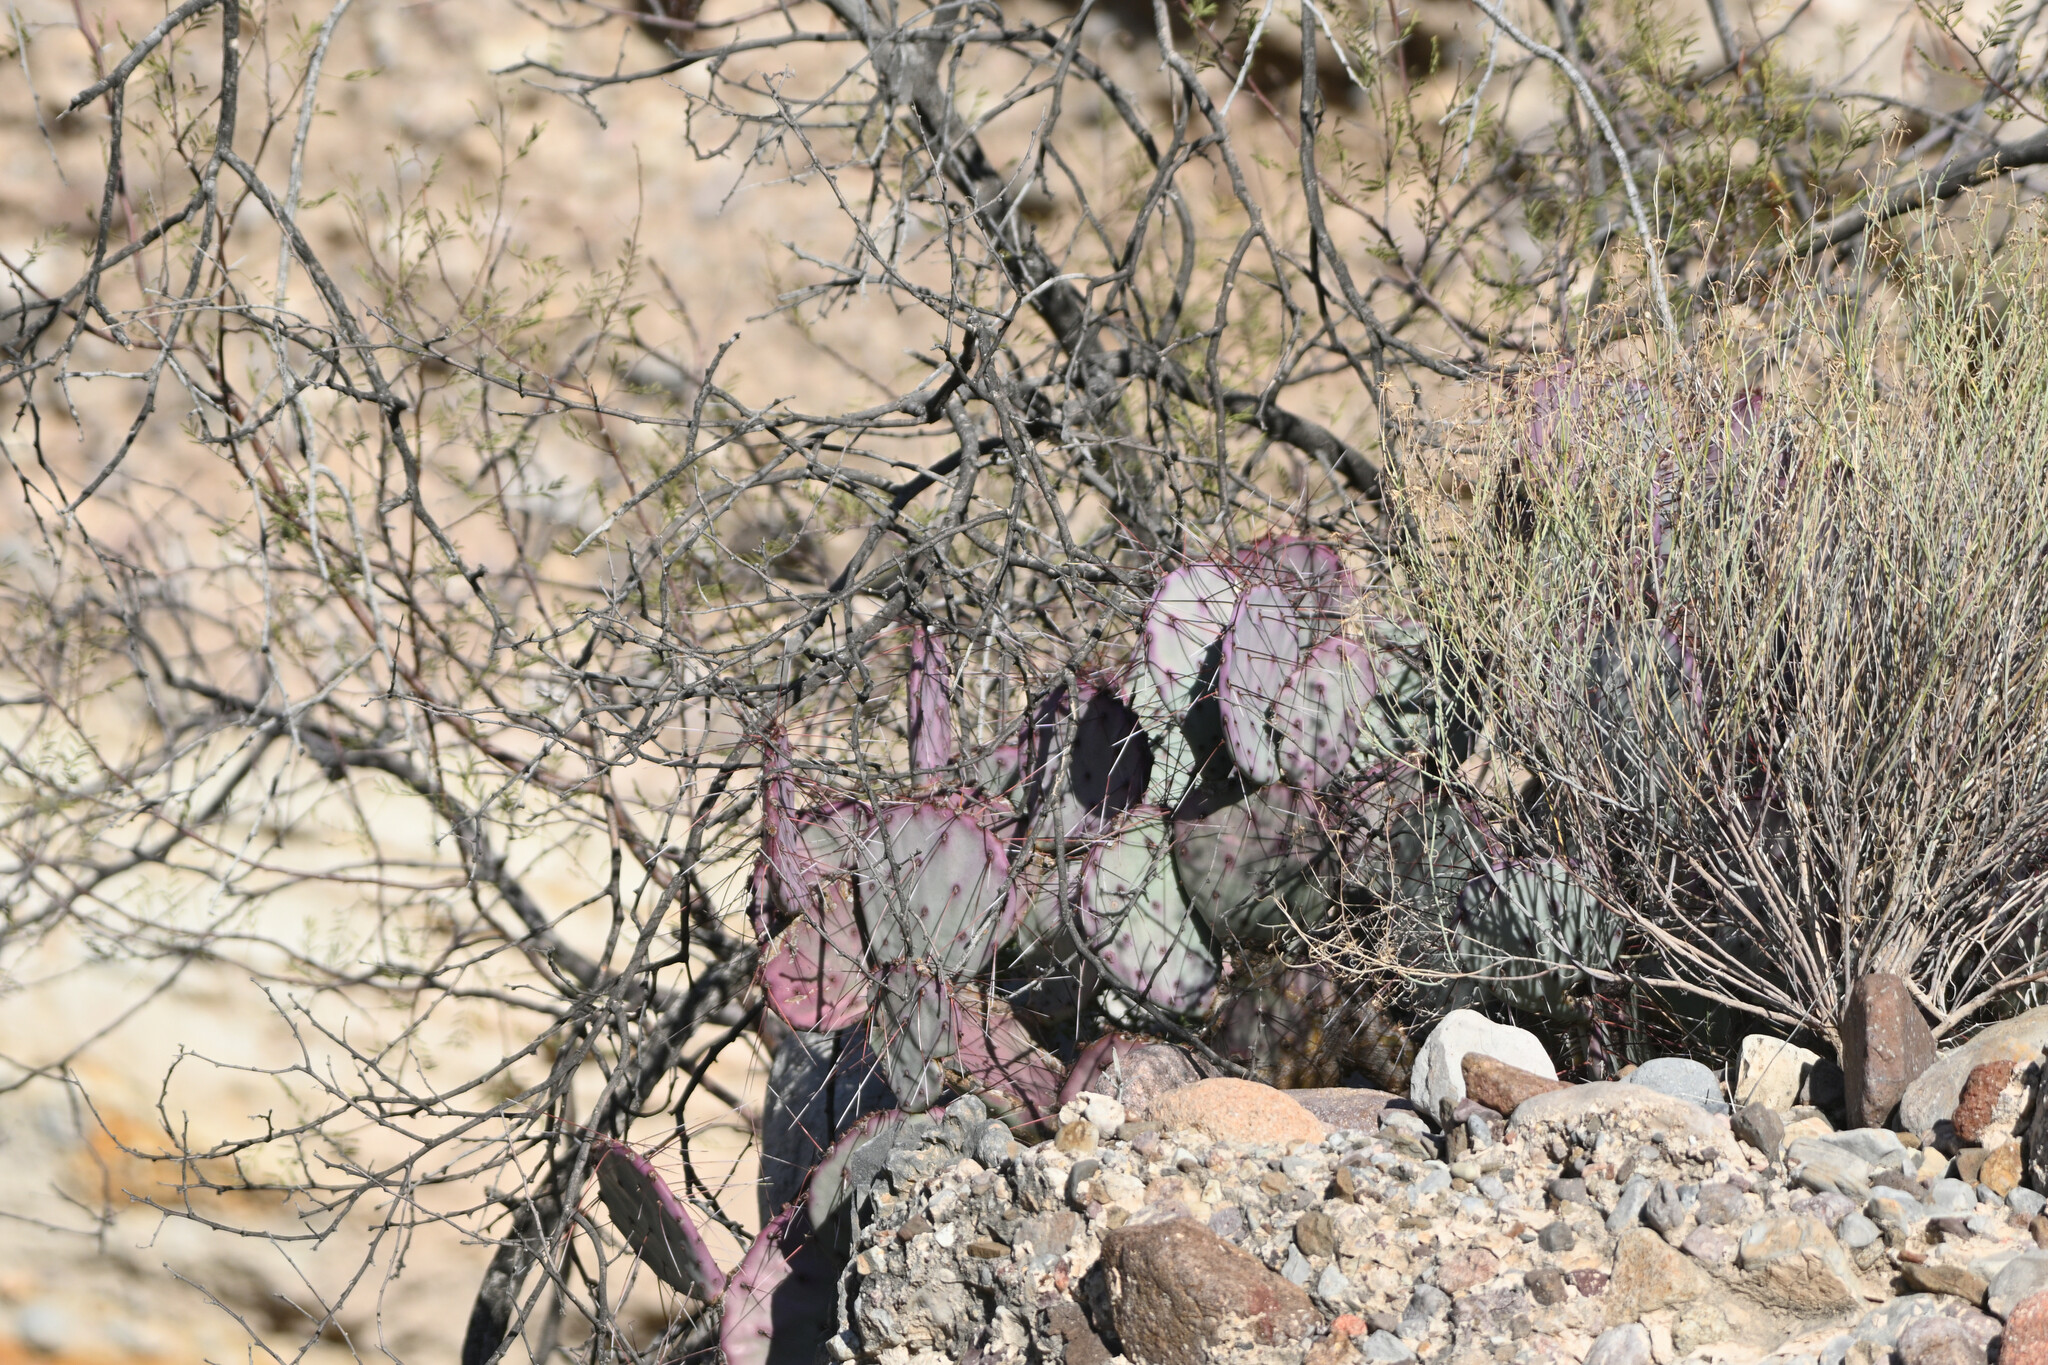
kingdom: Plantae
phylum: Tracheophyta
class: Magnoliopsida
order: Caryophyllales
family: Cactaceae
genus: Opuntia
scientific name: Opuntia phaeacantha
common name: New mexico prickly-pear
